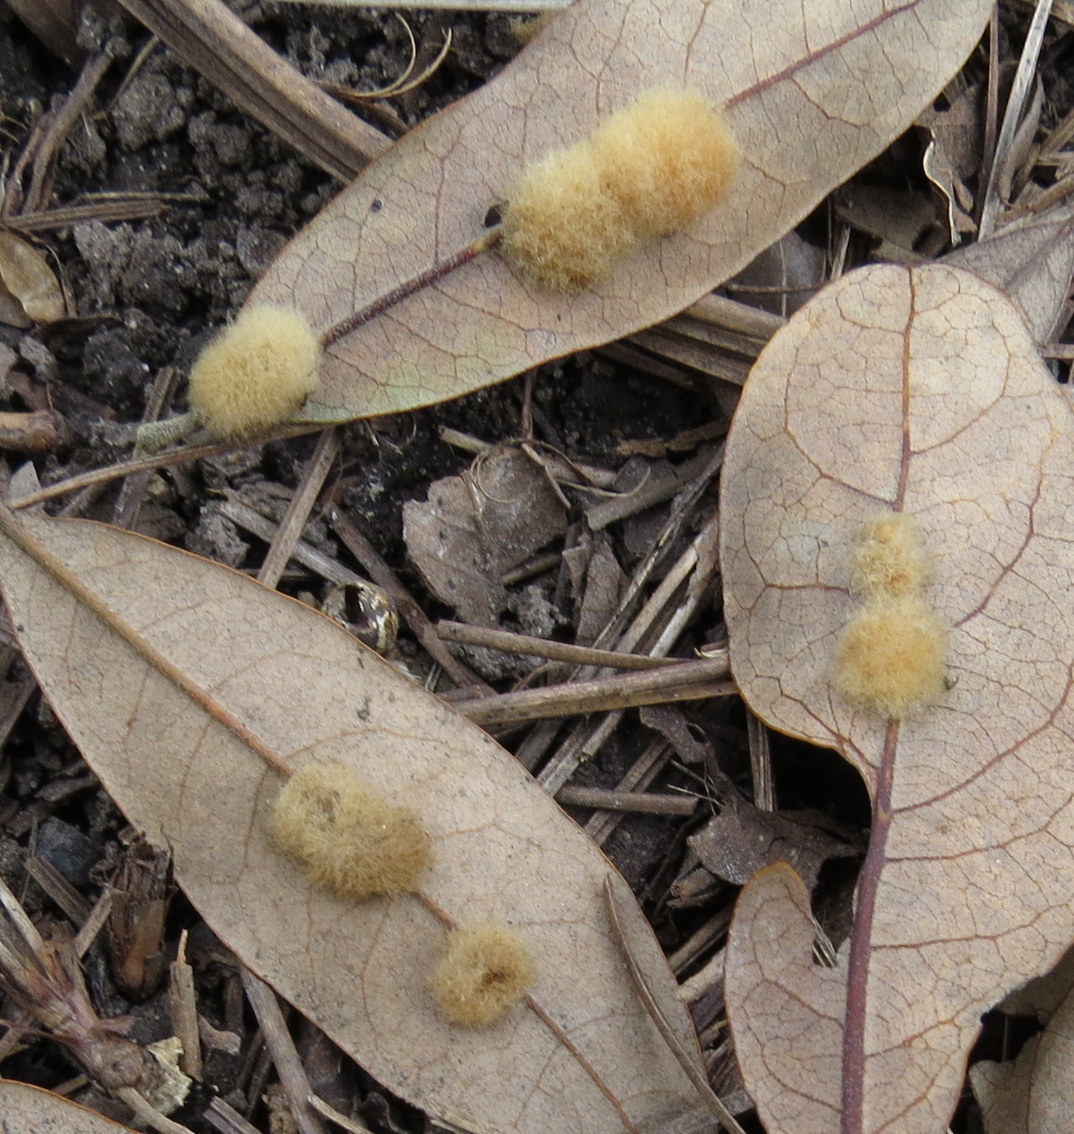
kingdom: Animalia
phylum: Arthropoda
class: Insecta
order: Hymenoptera
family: Cynipidae
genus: Andricus
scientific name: Andricus Druon quercuslanigerum
